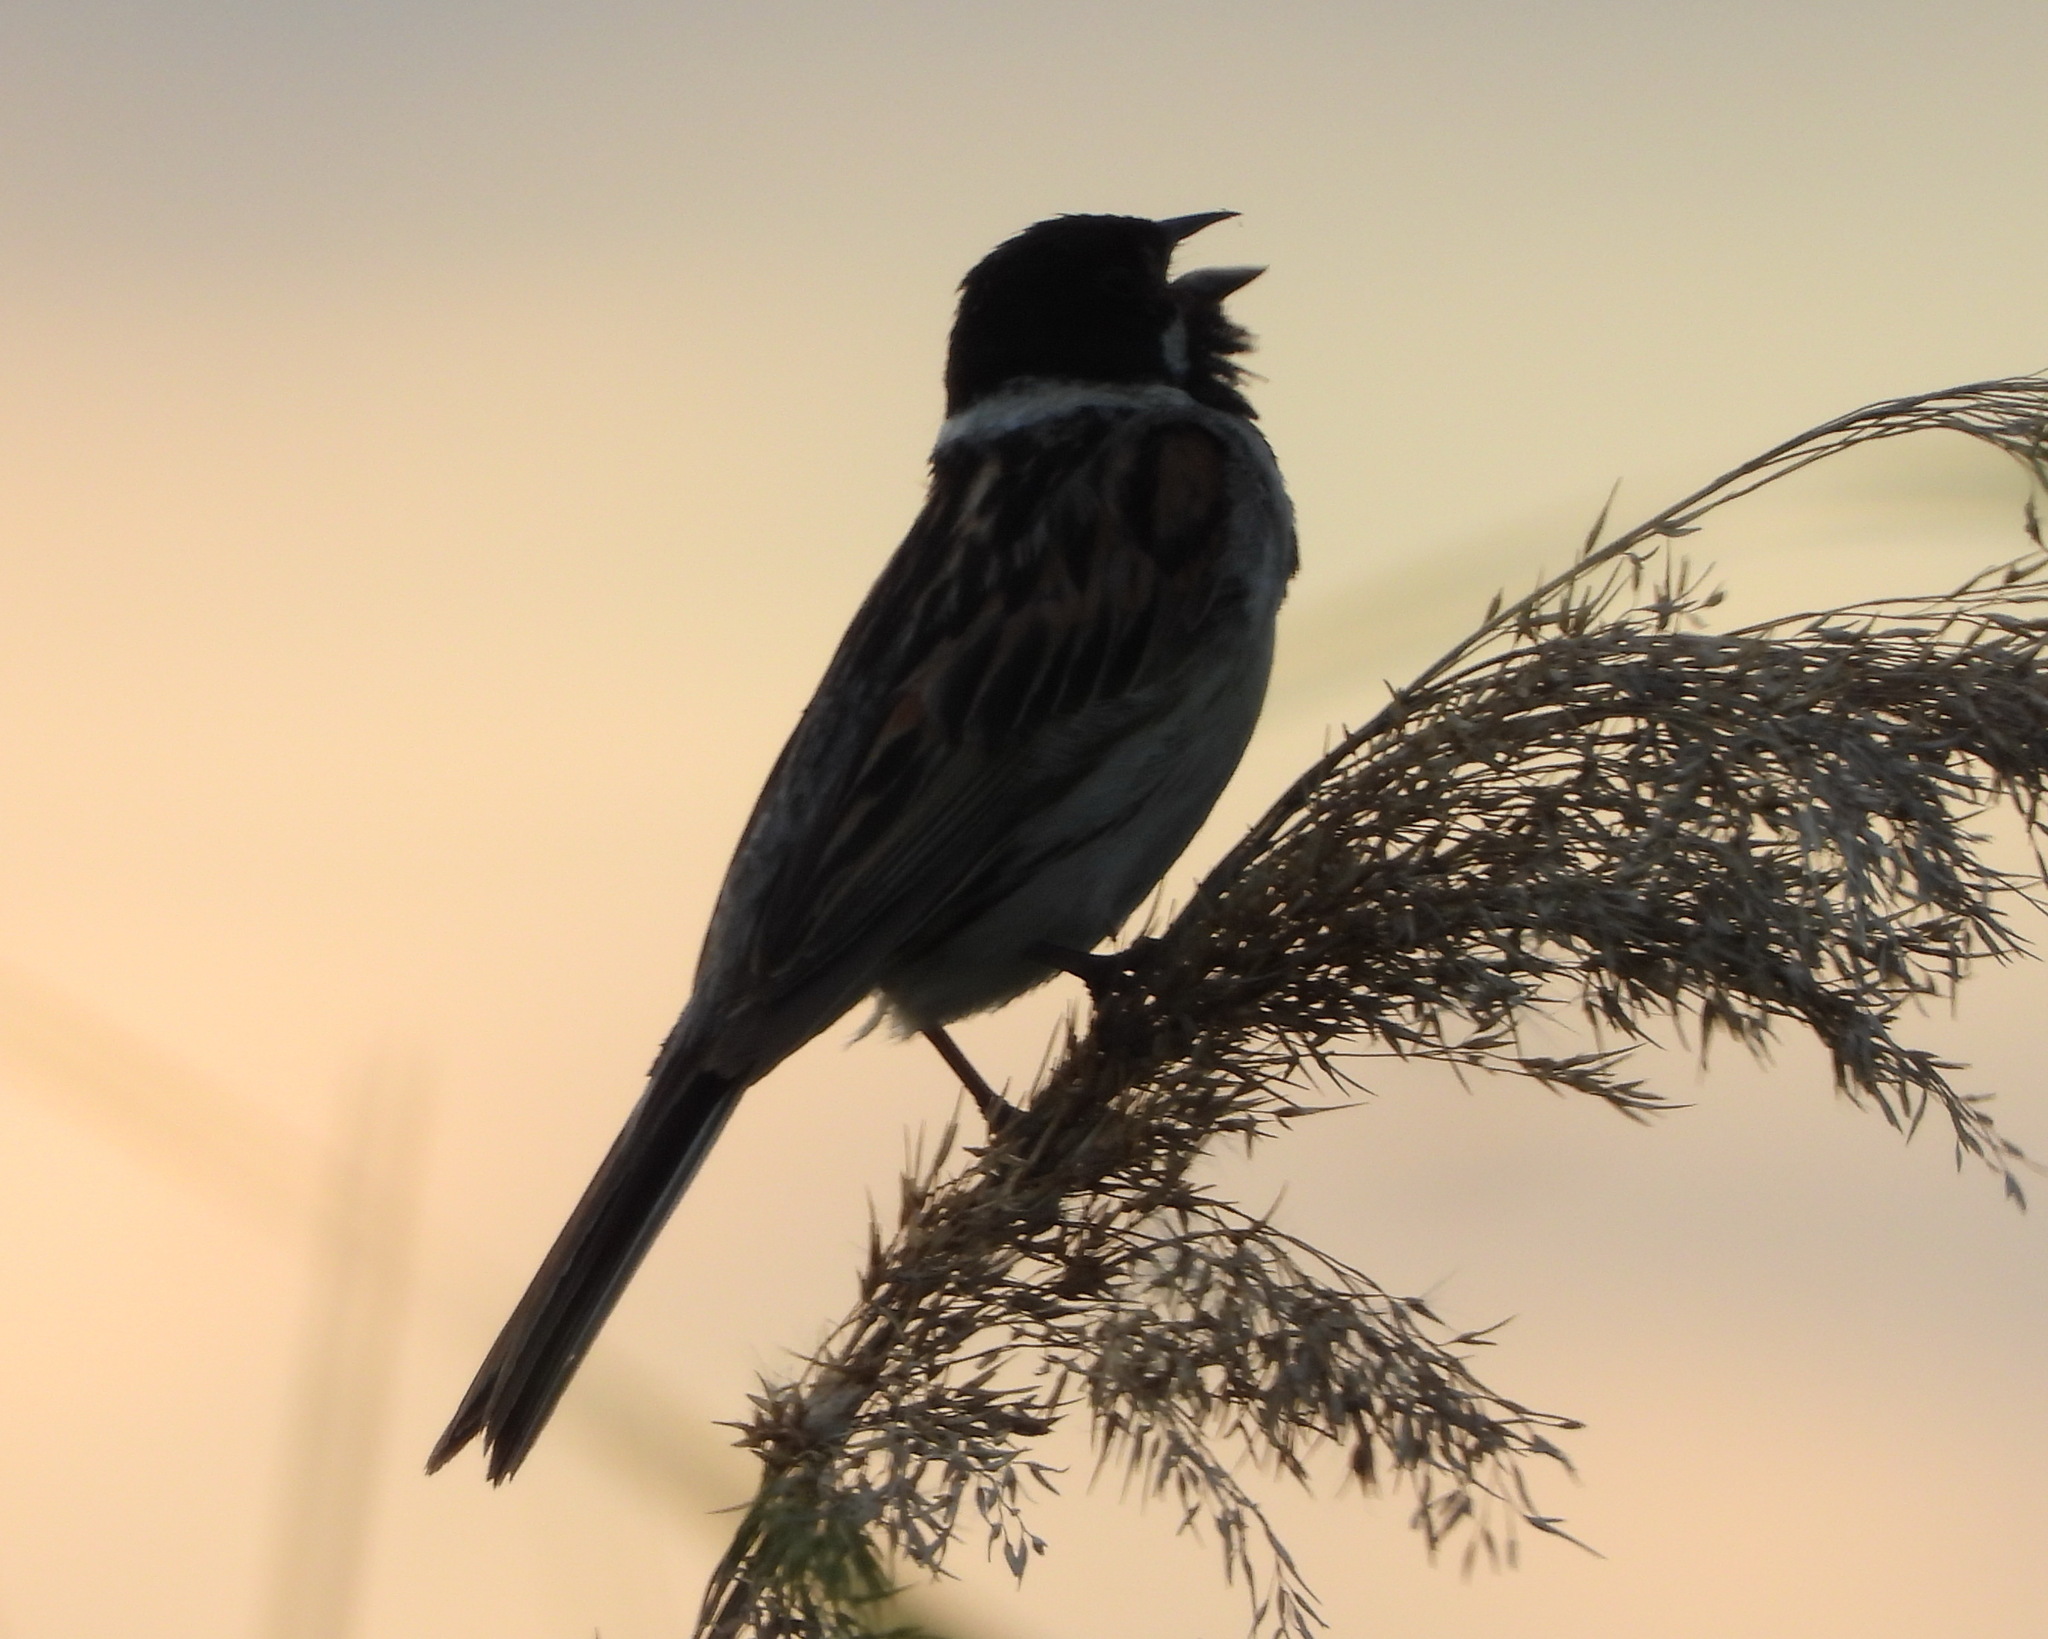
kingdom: Animalia
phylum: Chordata
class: Aves
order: Passeriformes
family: Emberizidae
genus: Emberiza
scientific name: Emberiza schoeniclus
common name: Reed bunting
